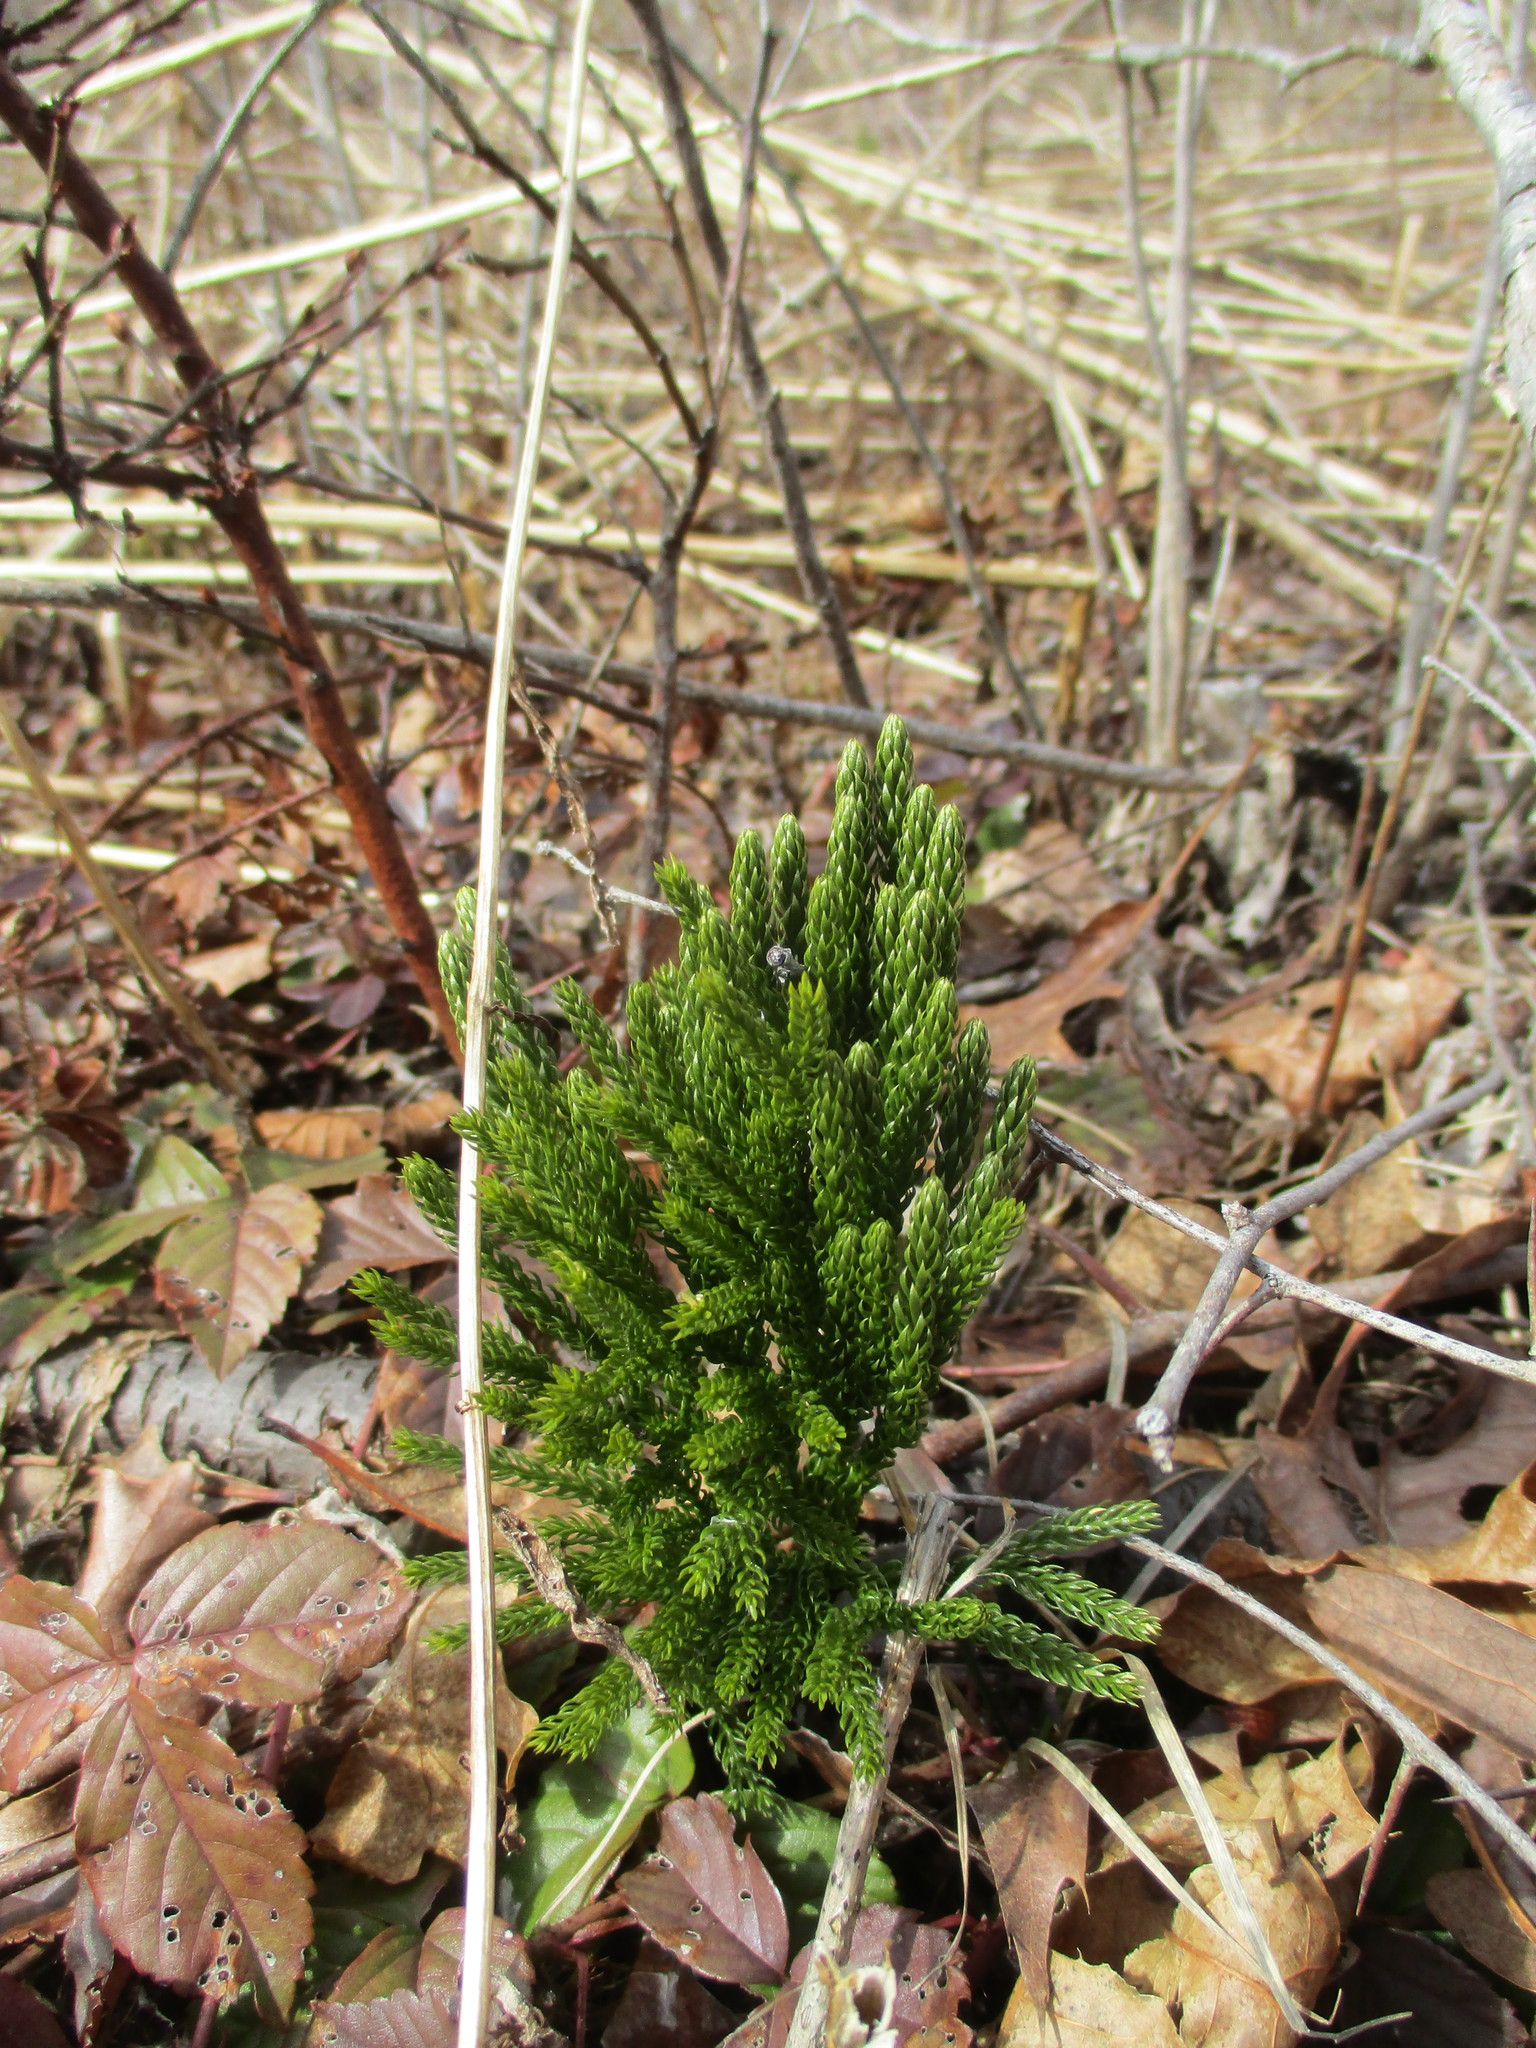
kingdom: Plantae
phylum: Tracheophyta
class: Lycopodiopsida
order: Lycopodiales
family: Lycopodiaceae
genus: Dendrolycopodium
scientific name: Dendrolycopodium hickeyi
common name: Hickey's clubmoss
